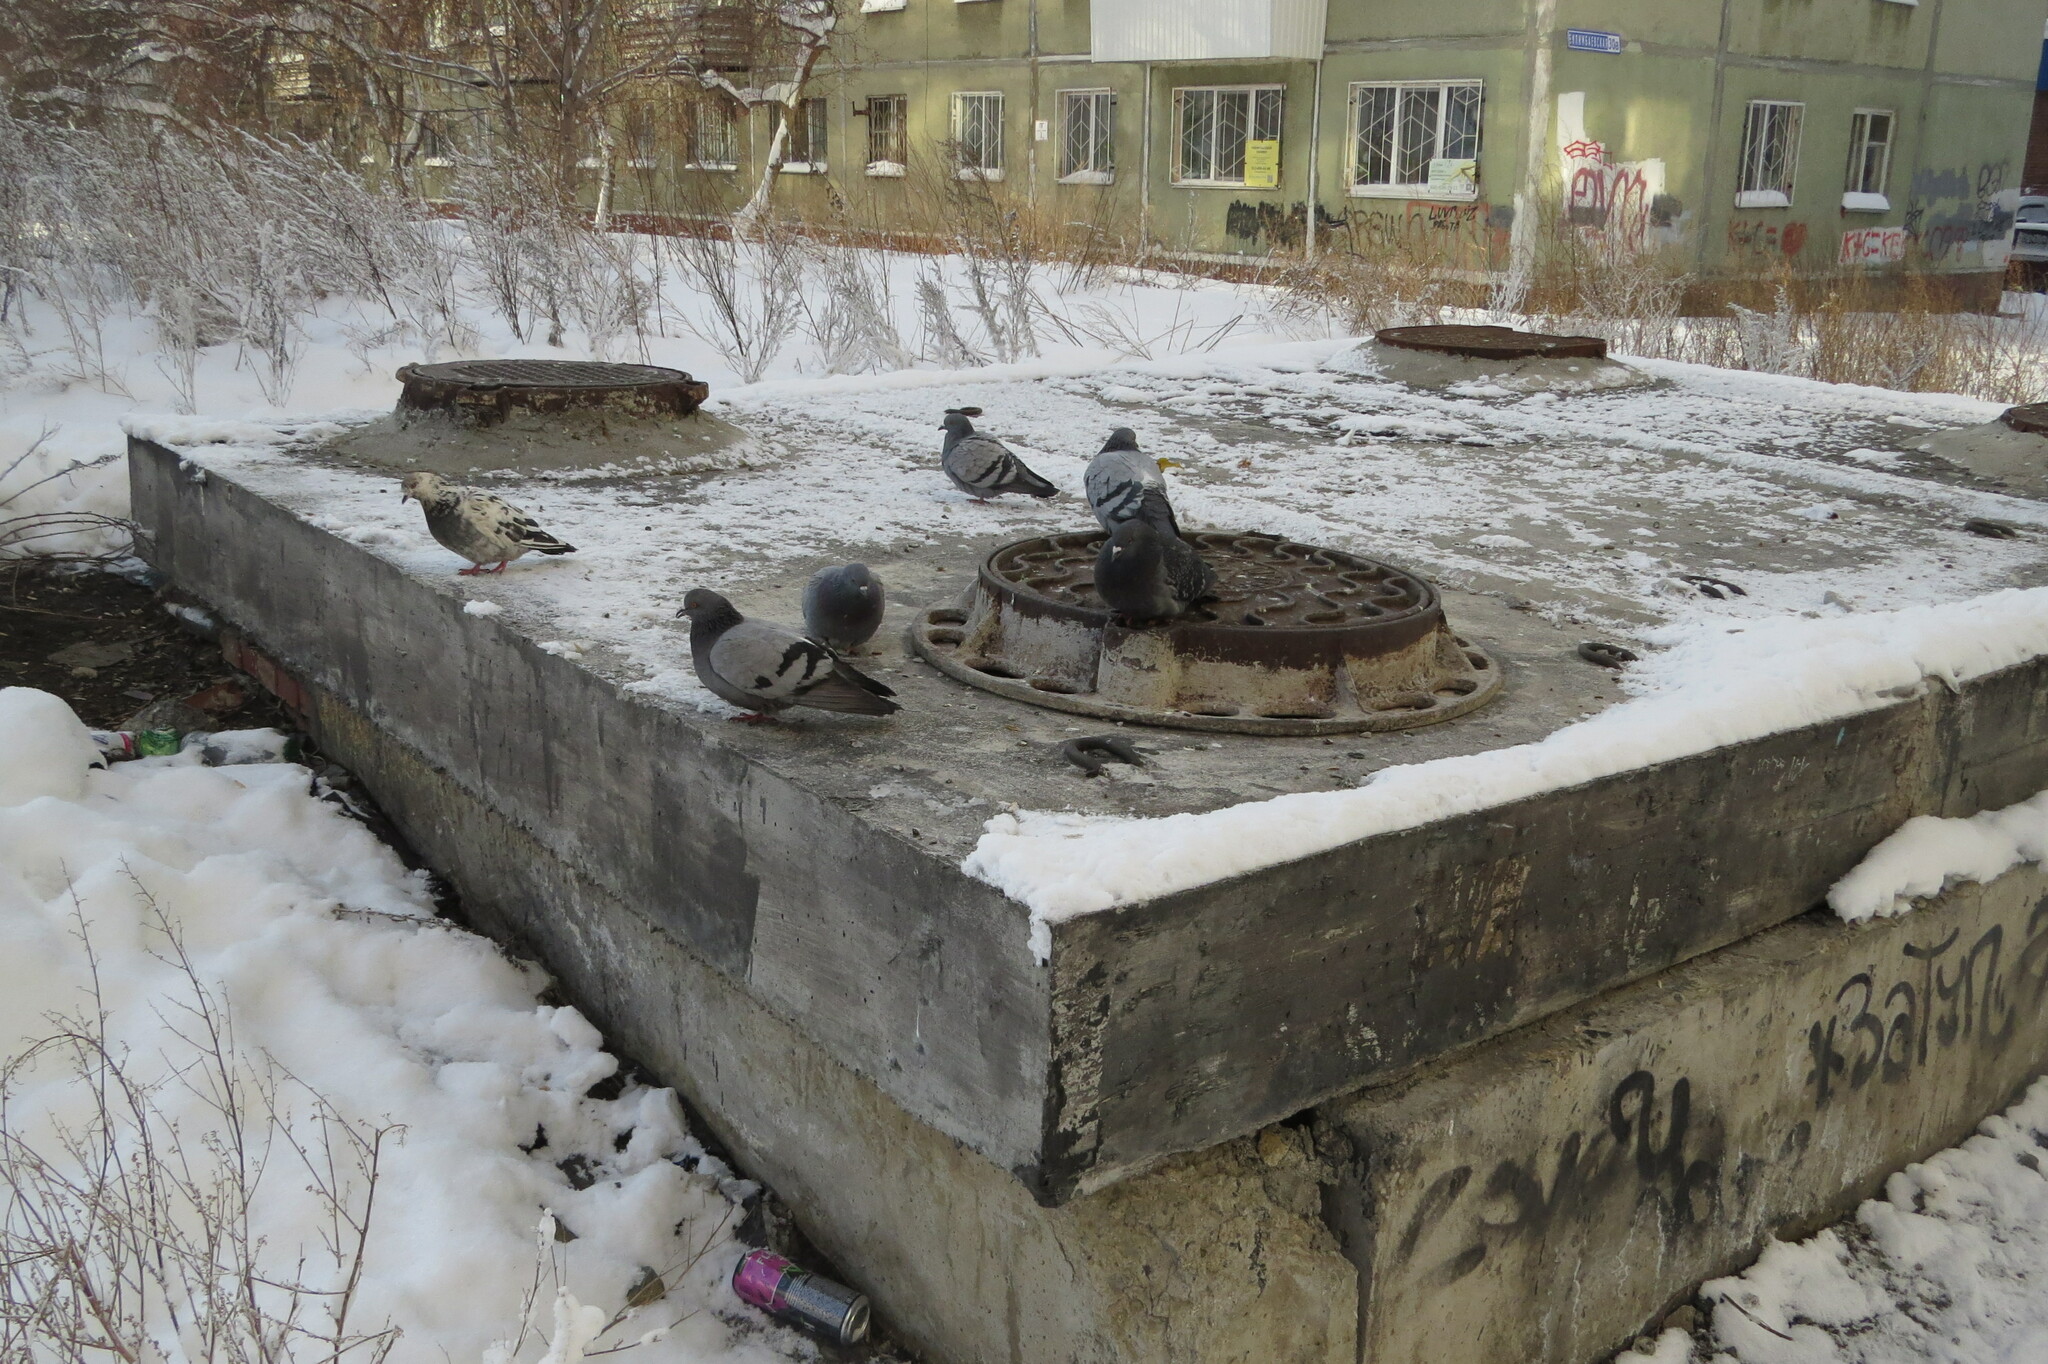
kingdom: Animalia
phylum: Chordata
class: Aves
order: Columbiformes
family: Columbidae
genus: Columba
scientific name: Columba livia
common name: Rock pigeon
